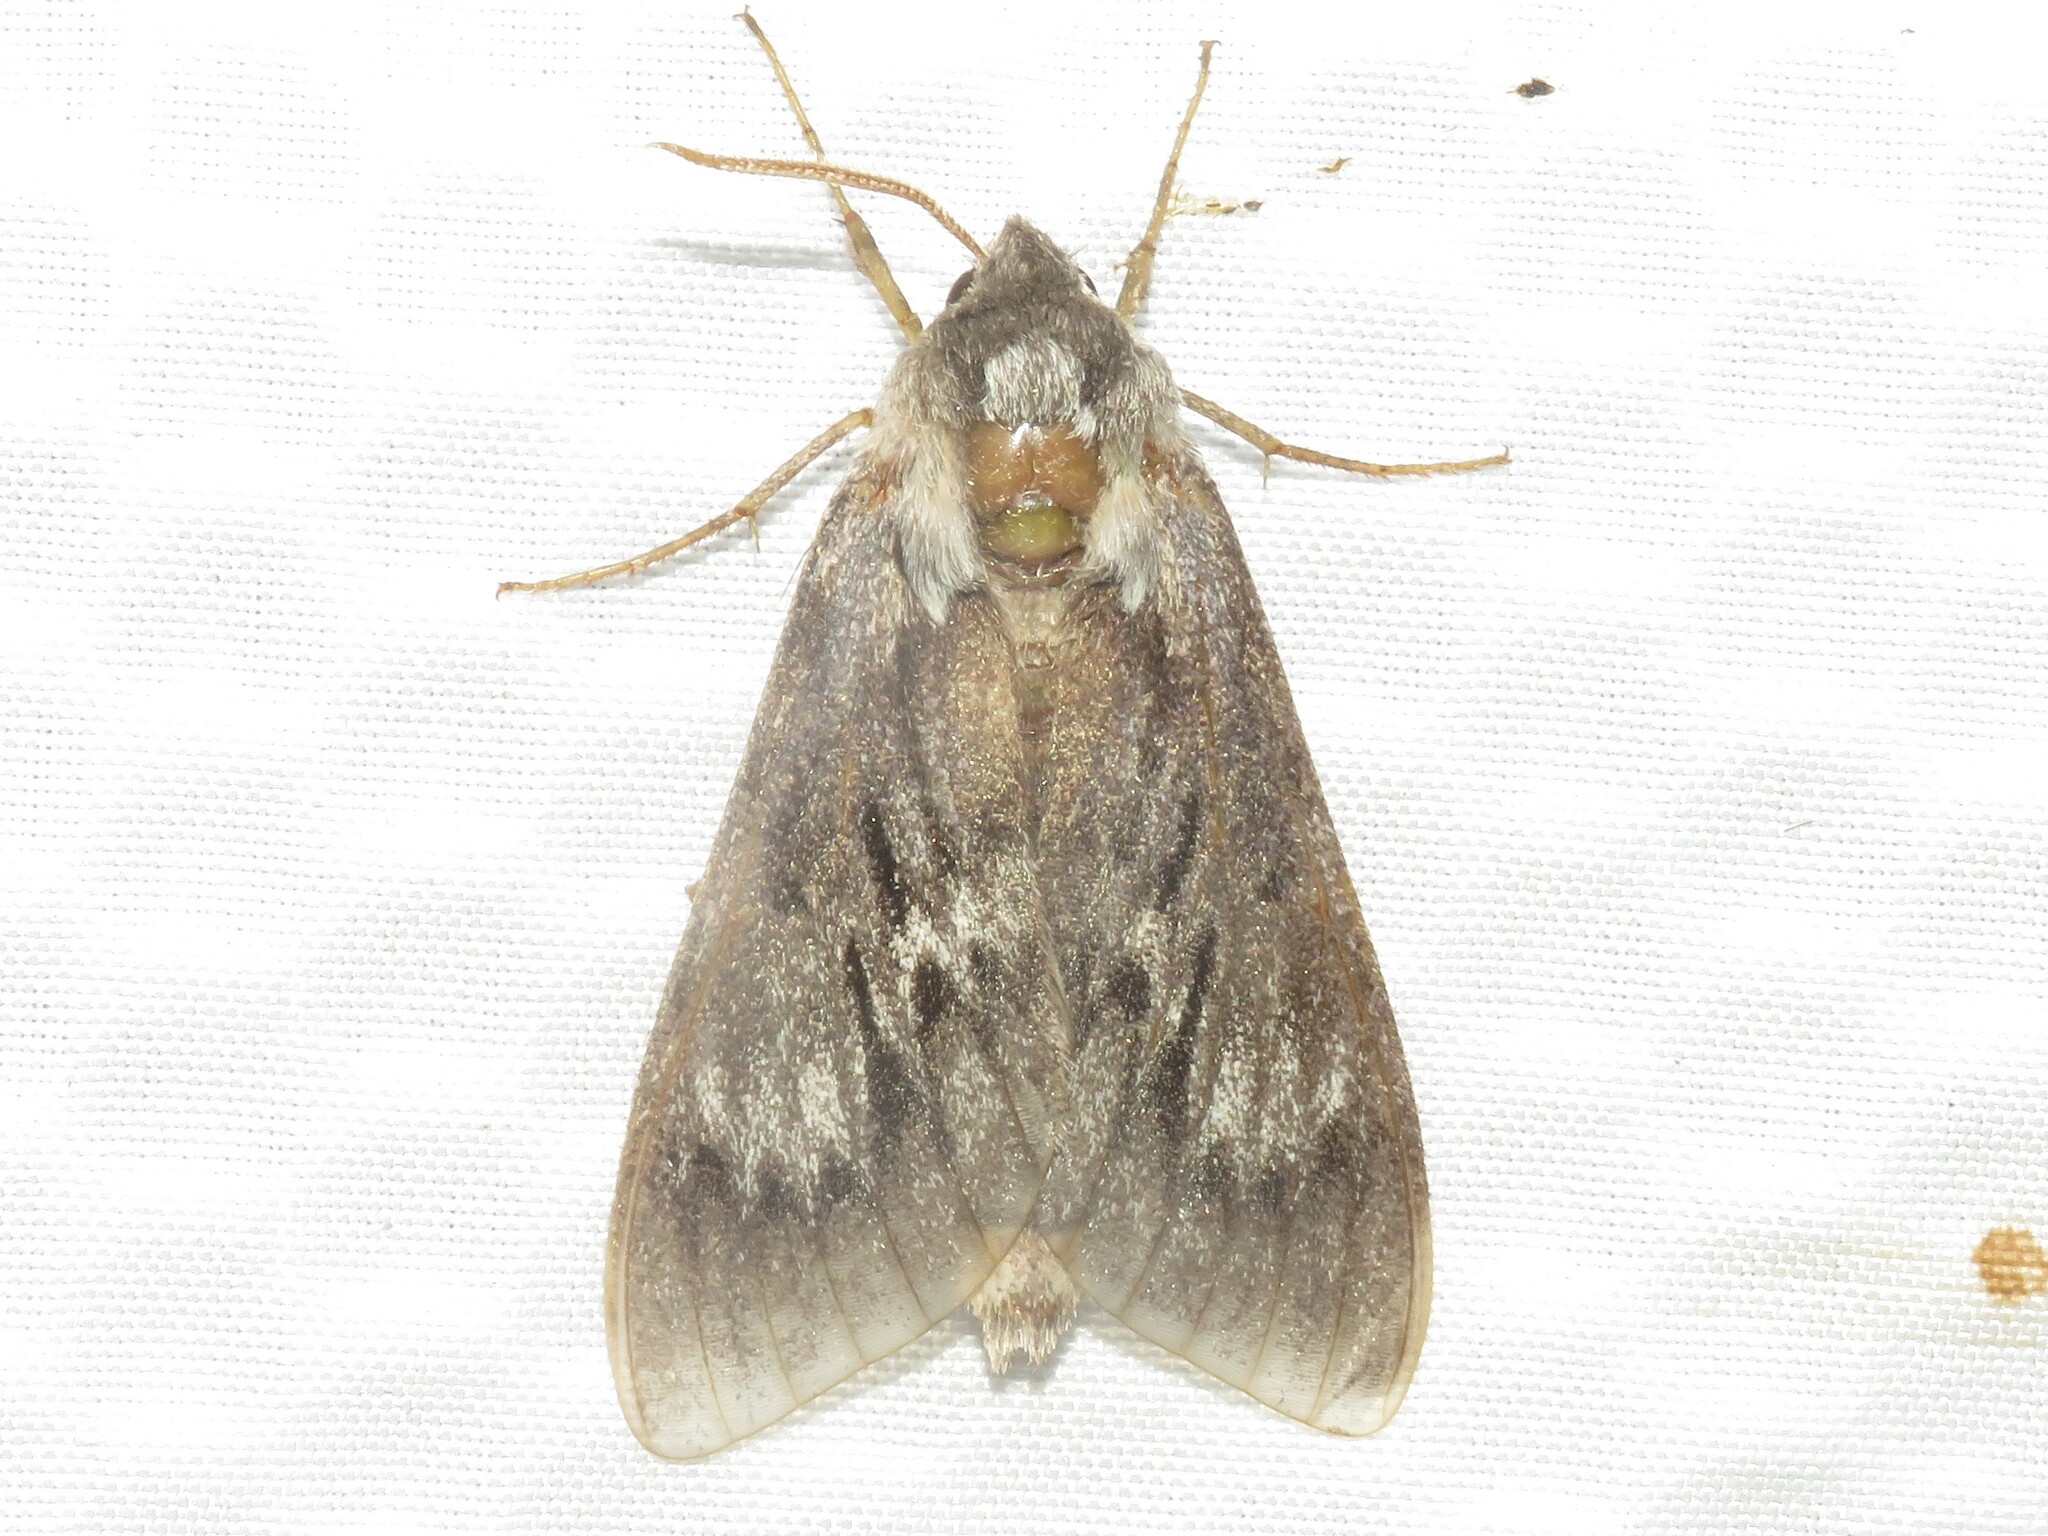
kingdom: Animalia
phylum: Arthropoda
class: Insecta
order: Lepidoptera
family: Sphingidae
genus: Lapara
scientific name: Lapara bombycoides
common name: Northern pine sphinx
